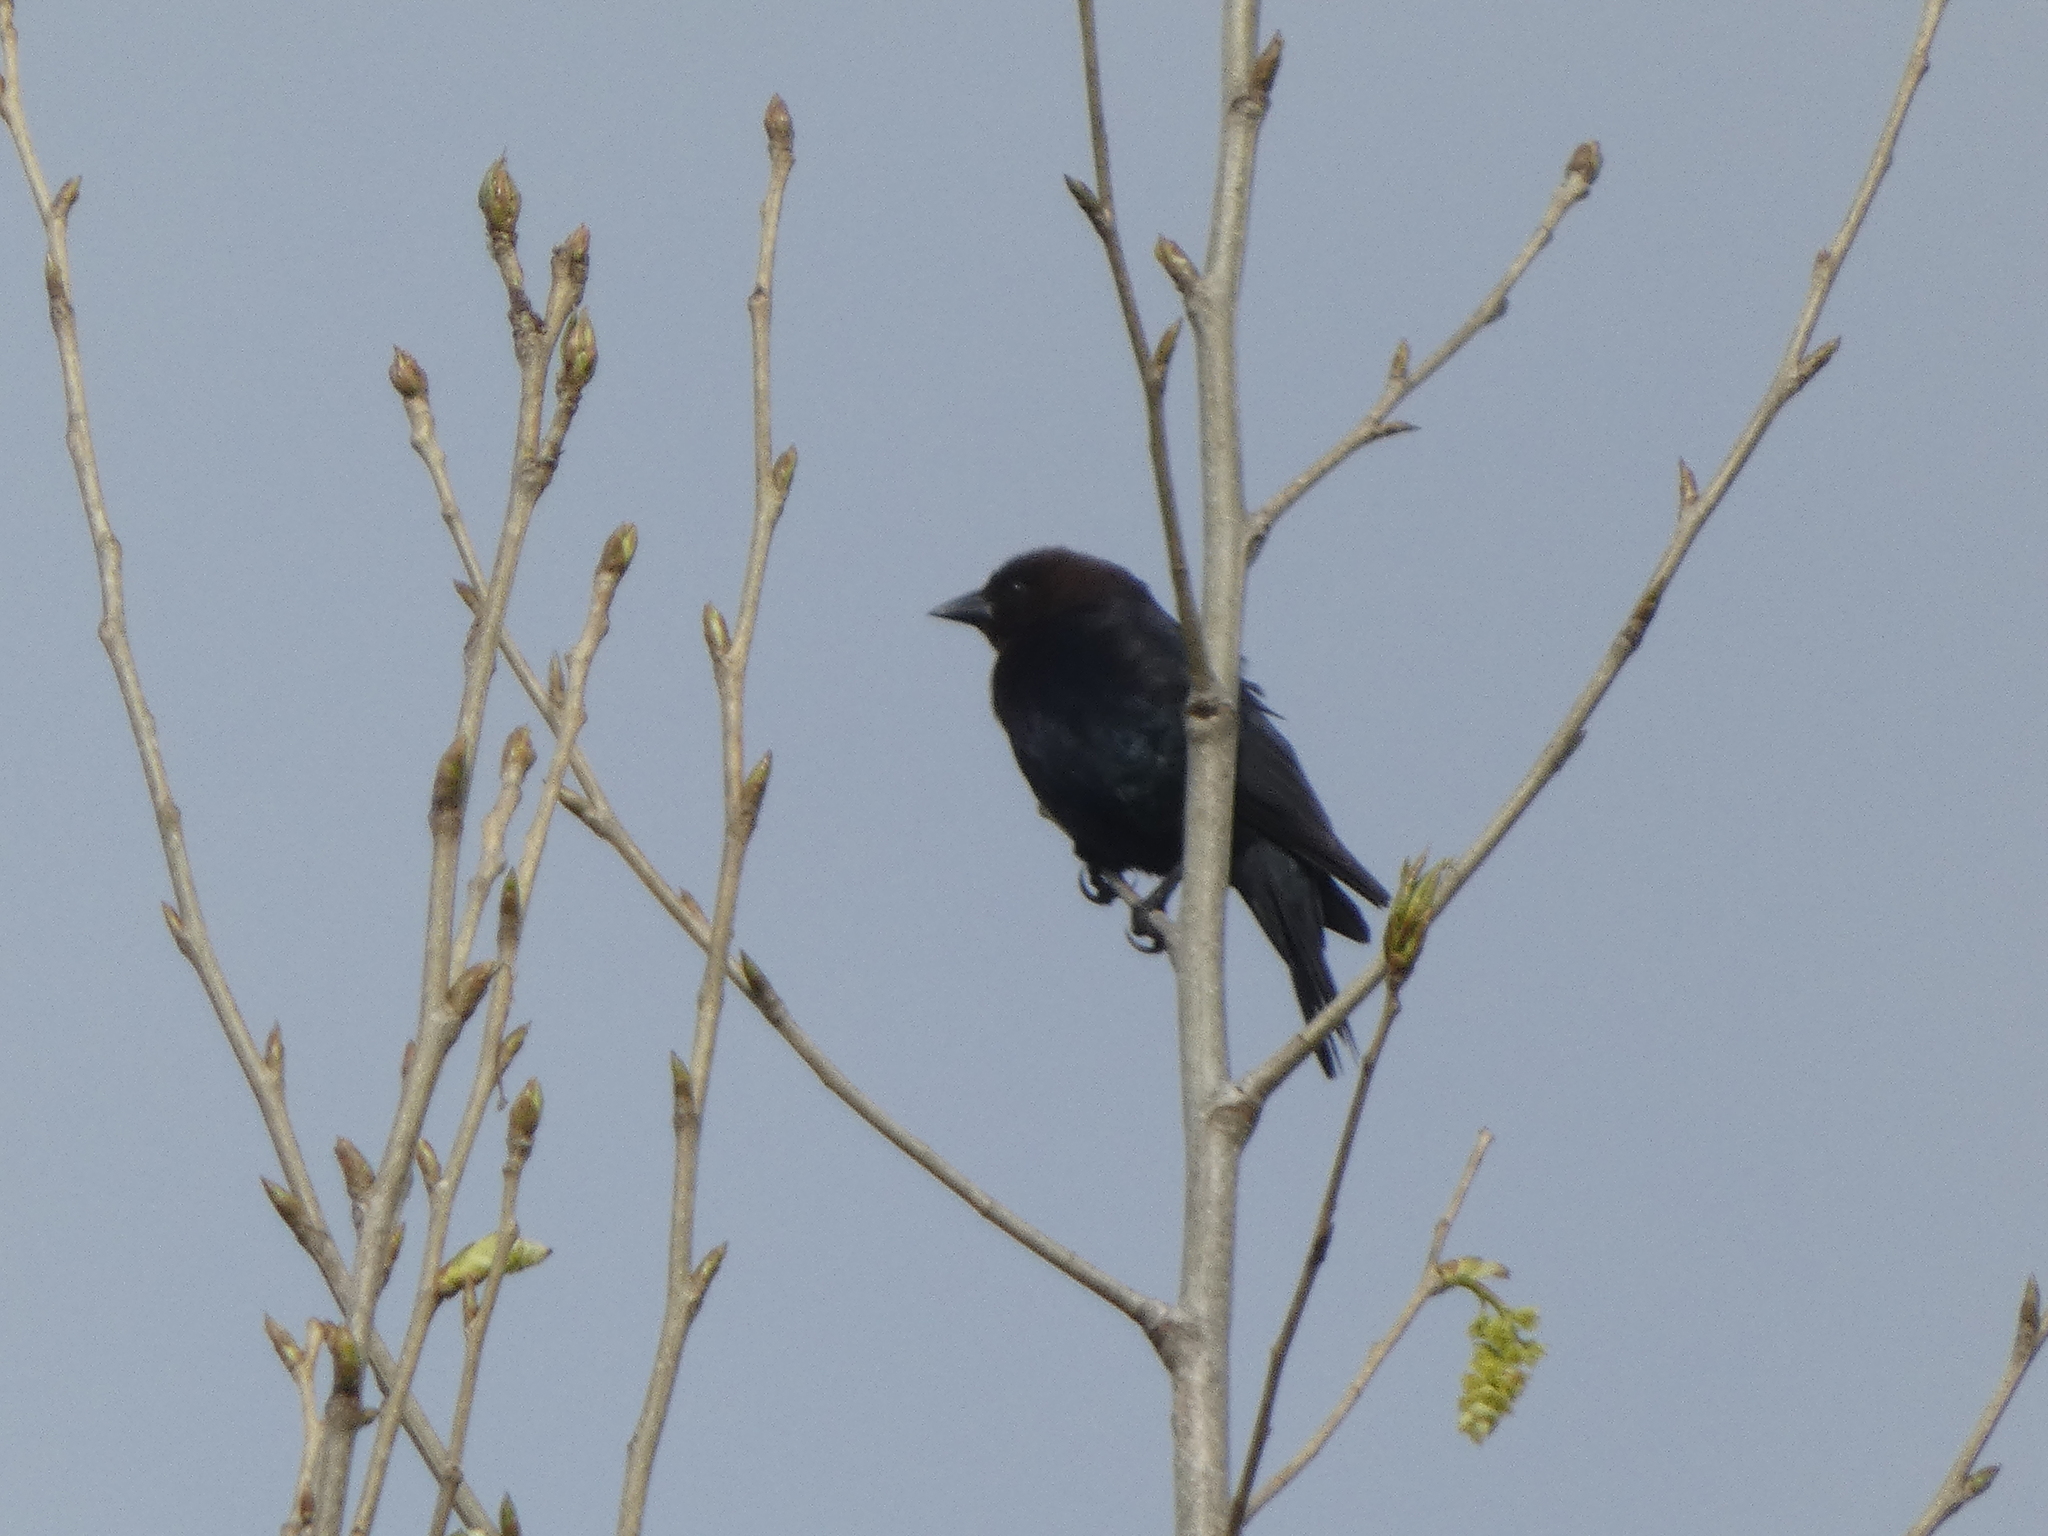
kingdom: Animalia
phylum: Chordata
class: Aves
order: Passeriformes
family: Icteridae
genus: Molothrus
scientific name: Molothrus ater
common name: Brown-headed cowbird
